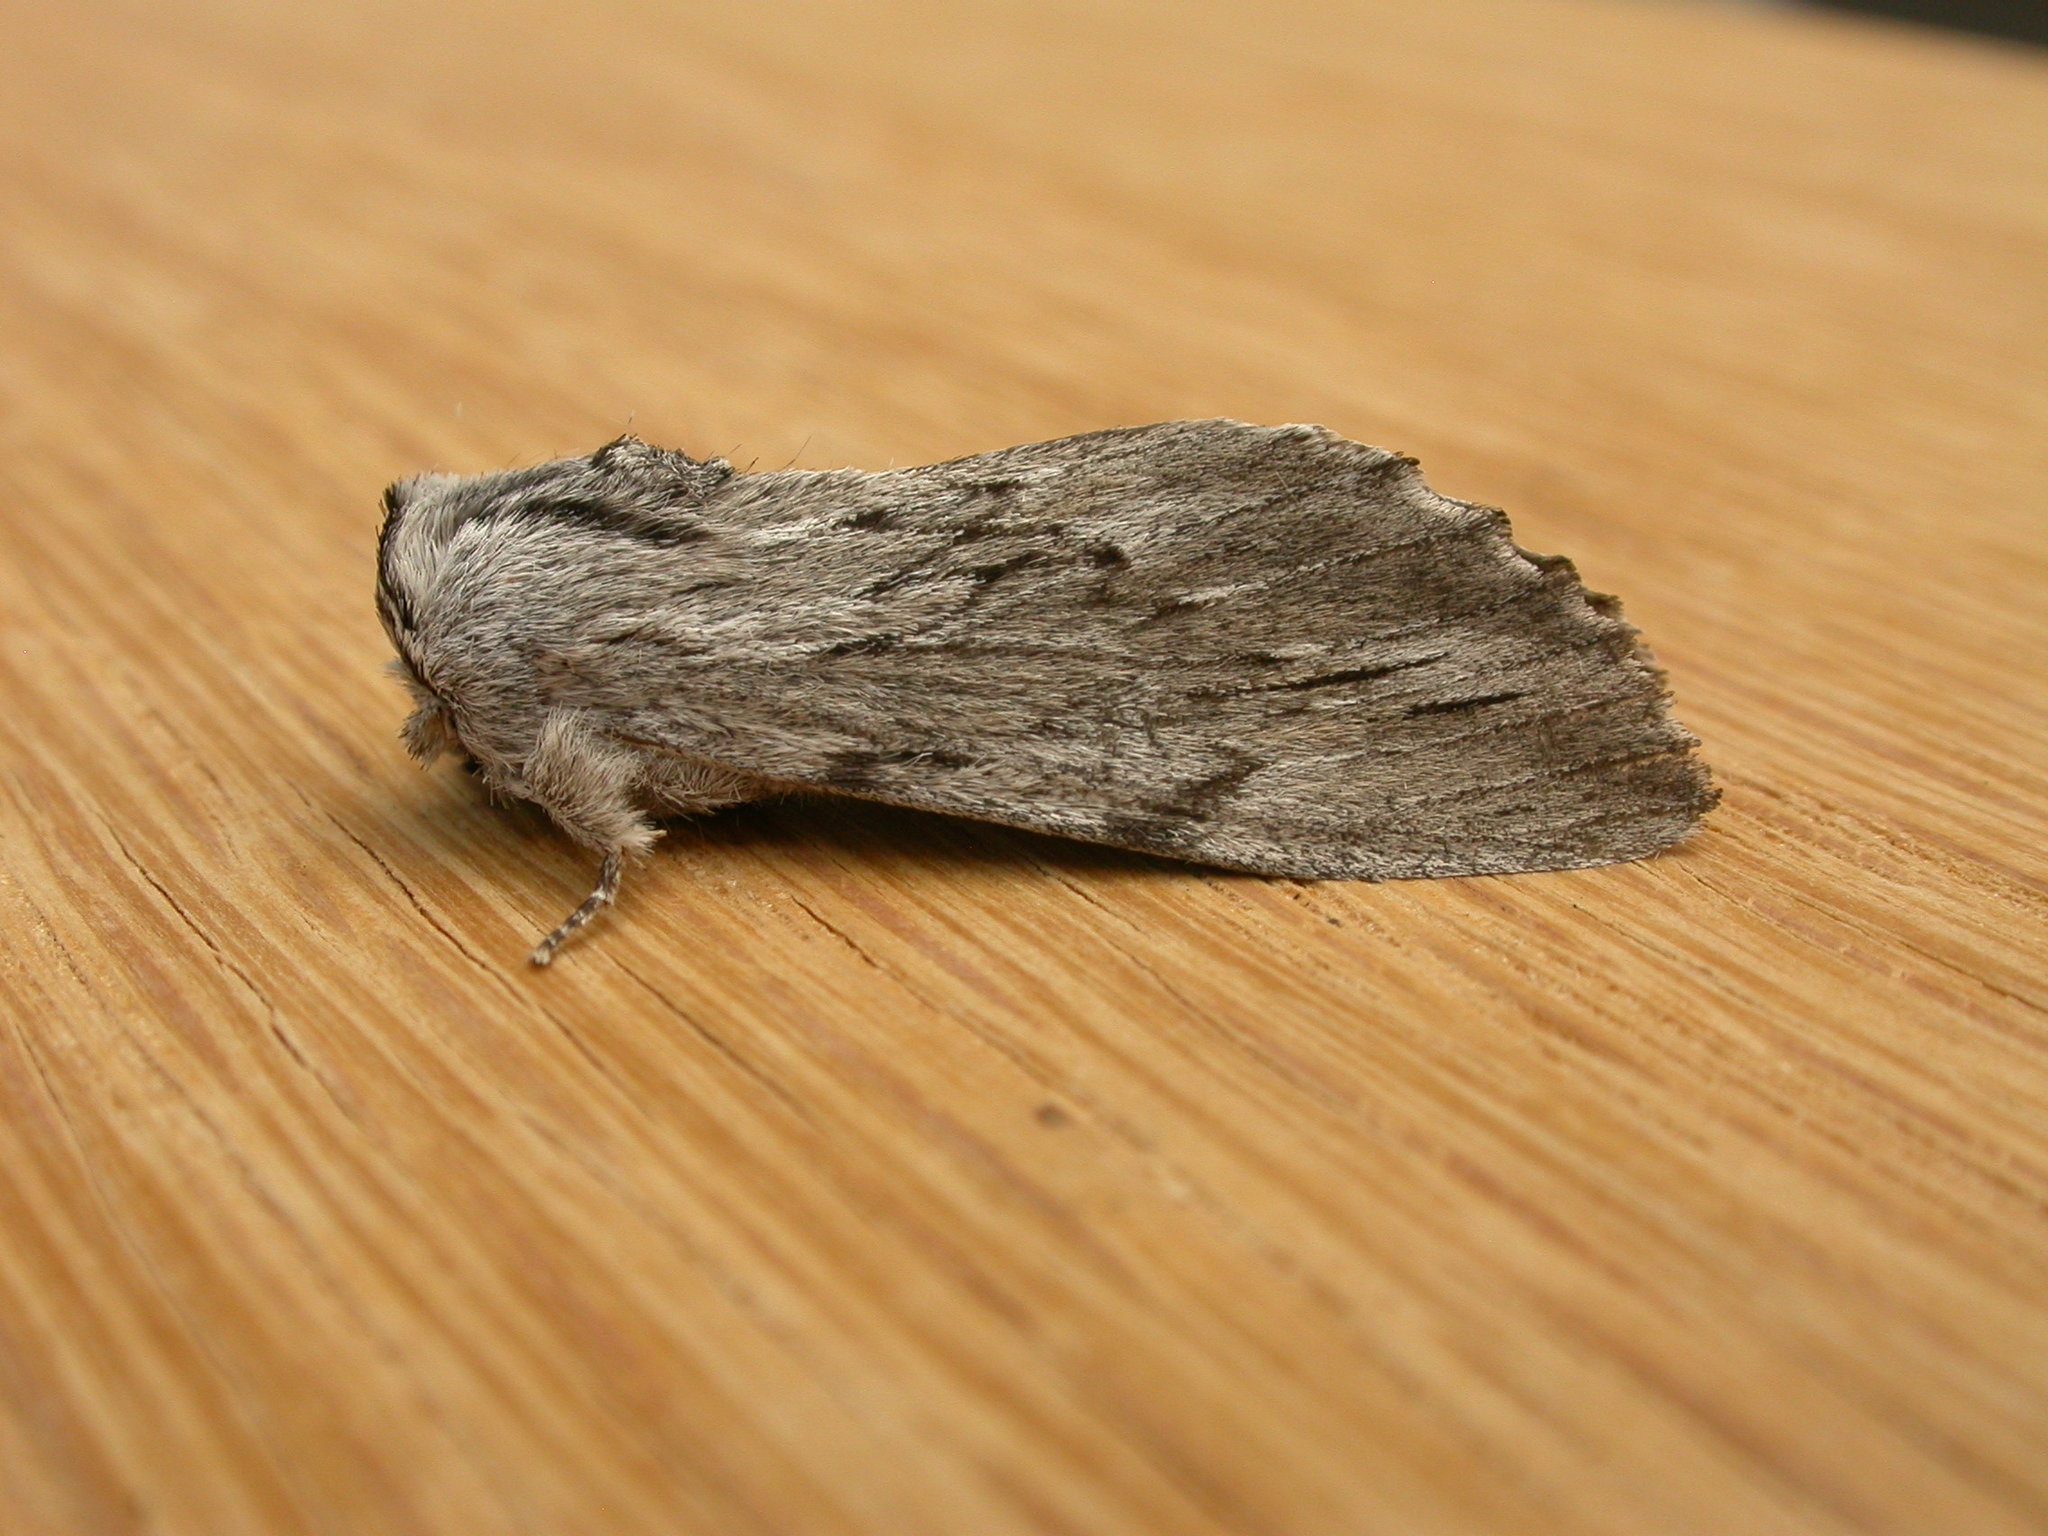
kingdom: Animalia
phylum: Arthropoda
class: Insecta
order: Lepidoptera
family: Notodontidae
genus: Destolmia
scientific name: Destolmia lineata
